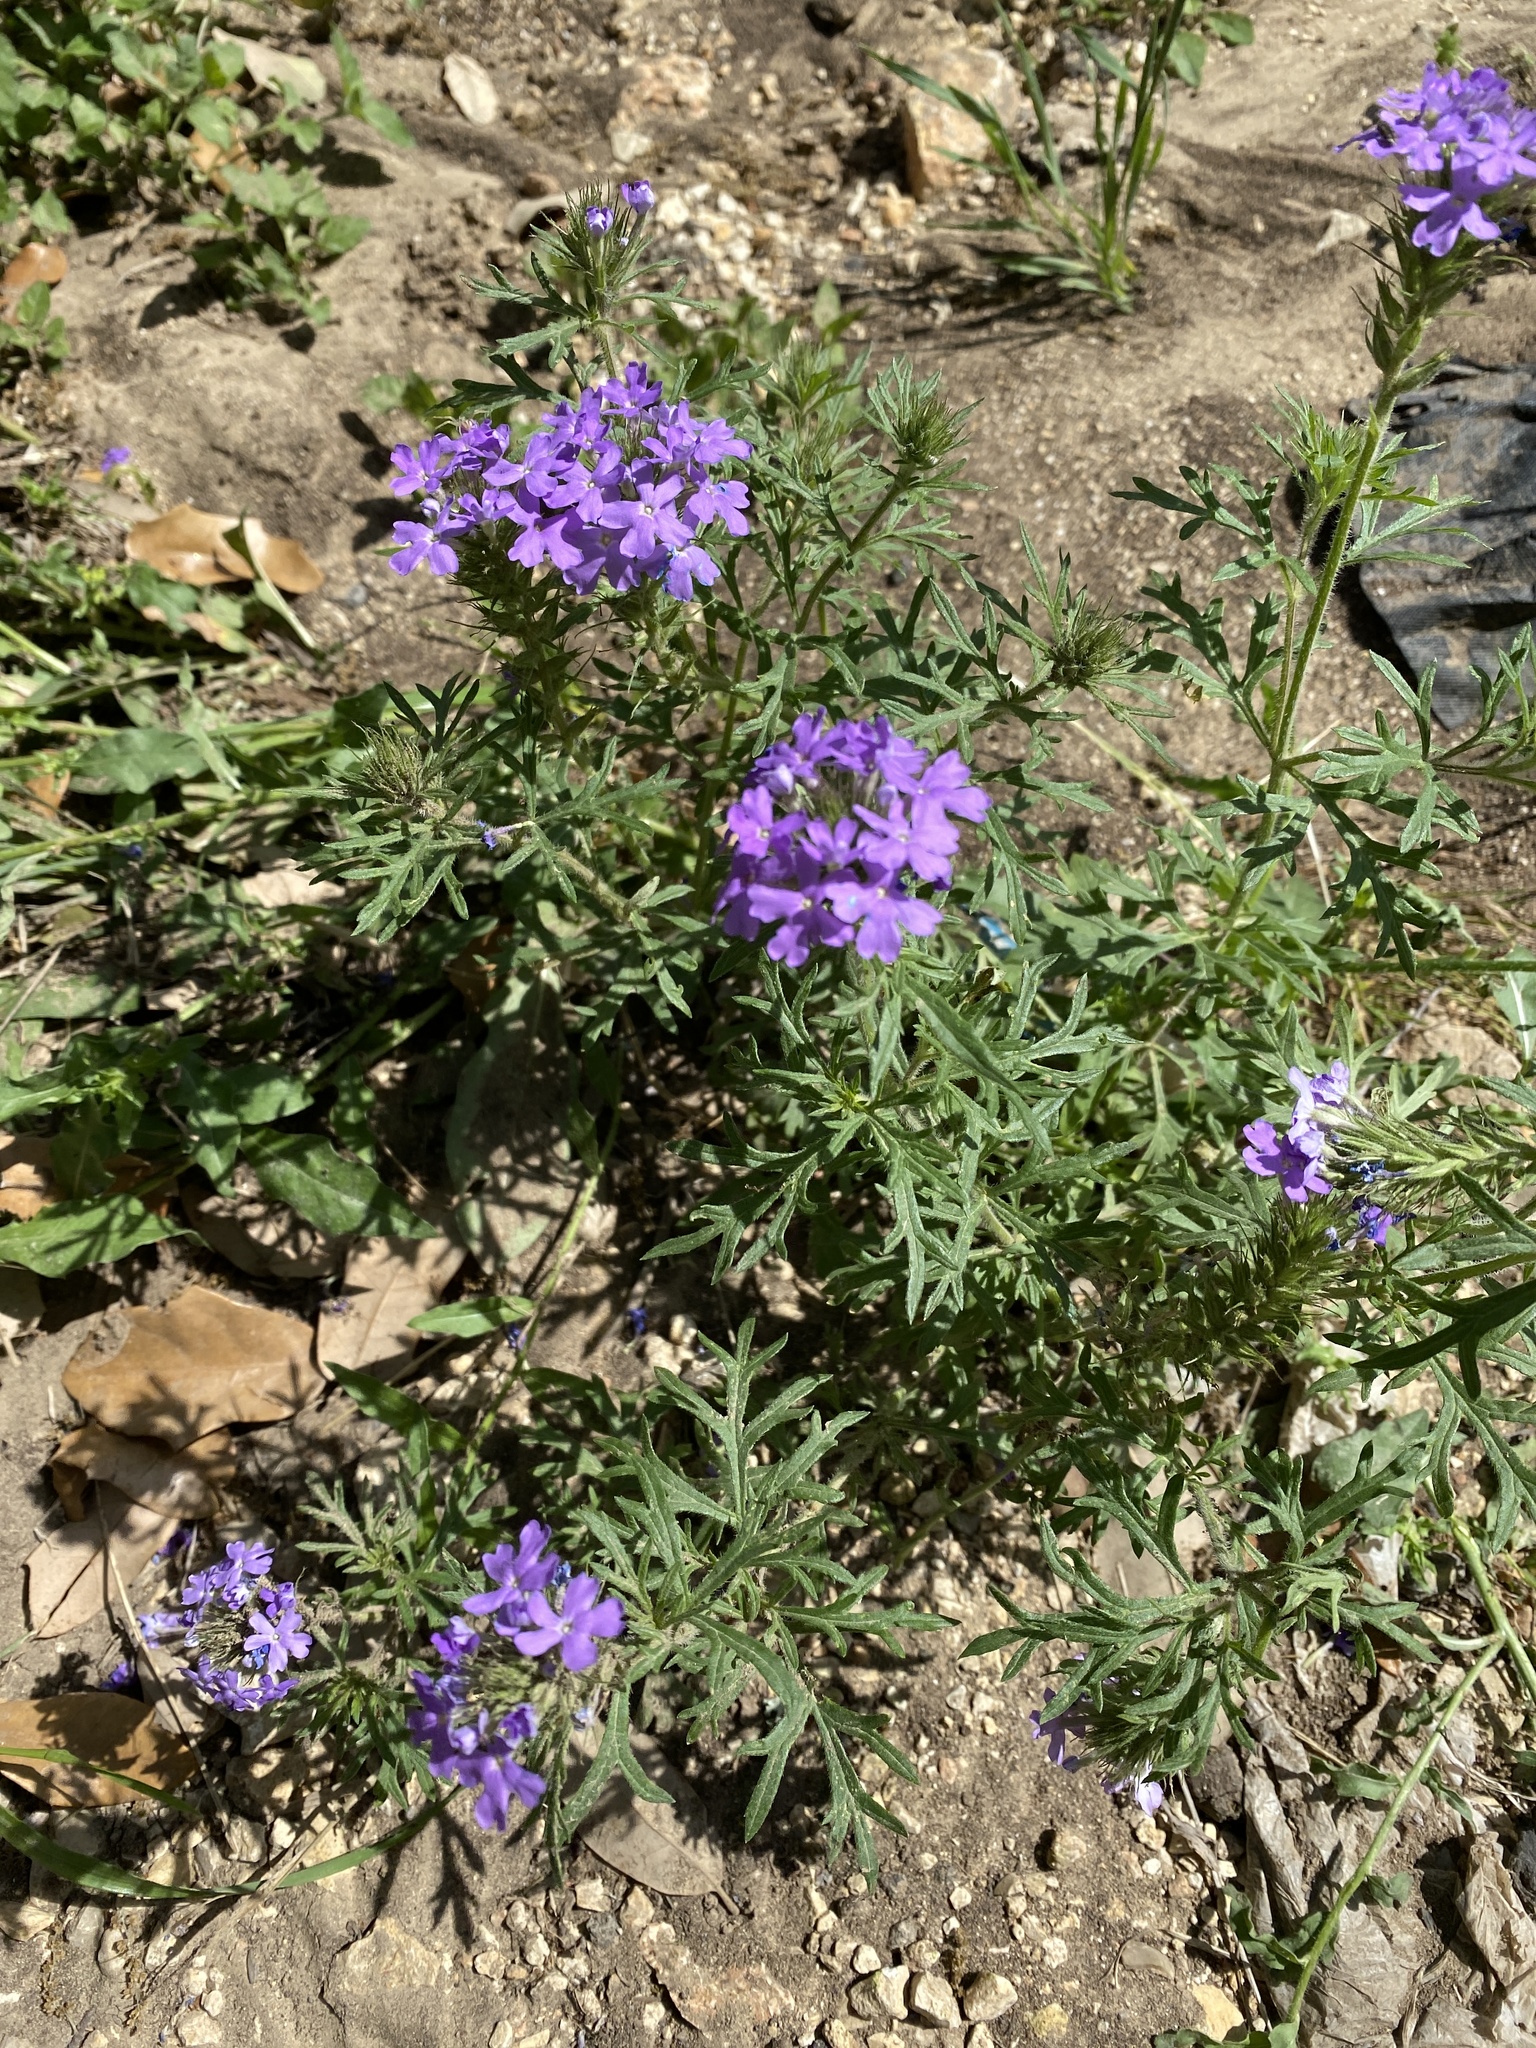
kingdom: Plantae
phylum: Tracheophyta
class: Magnoliopsida
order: Lamiales
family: Verbenaceae
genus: Verbena
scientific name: Verbena bipinnatifida
